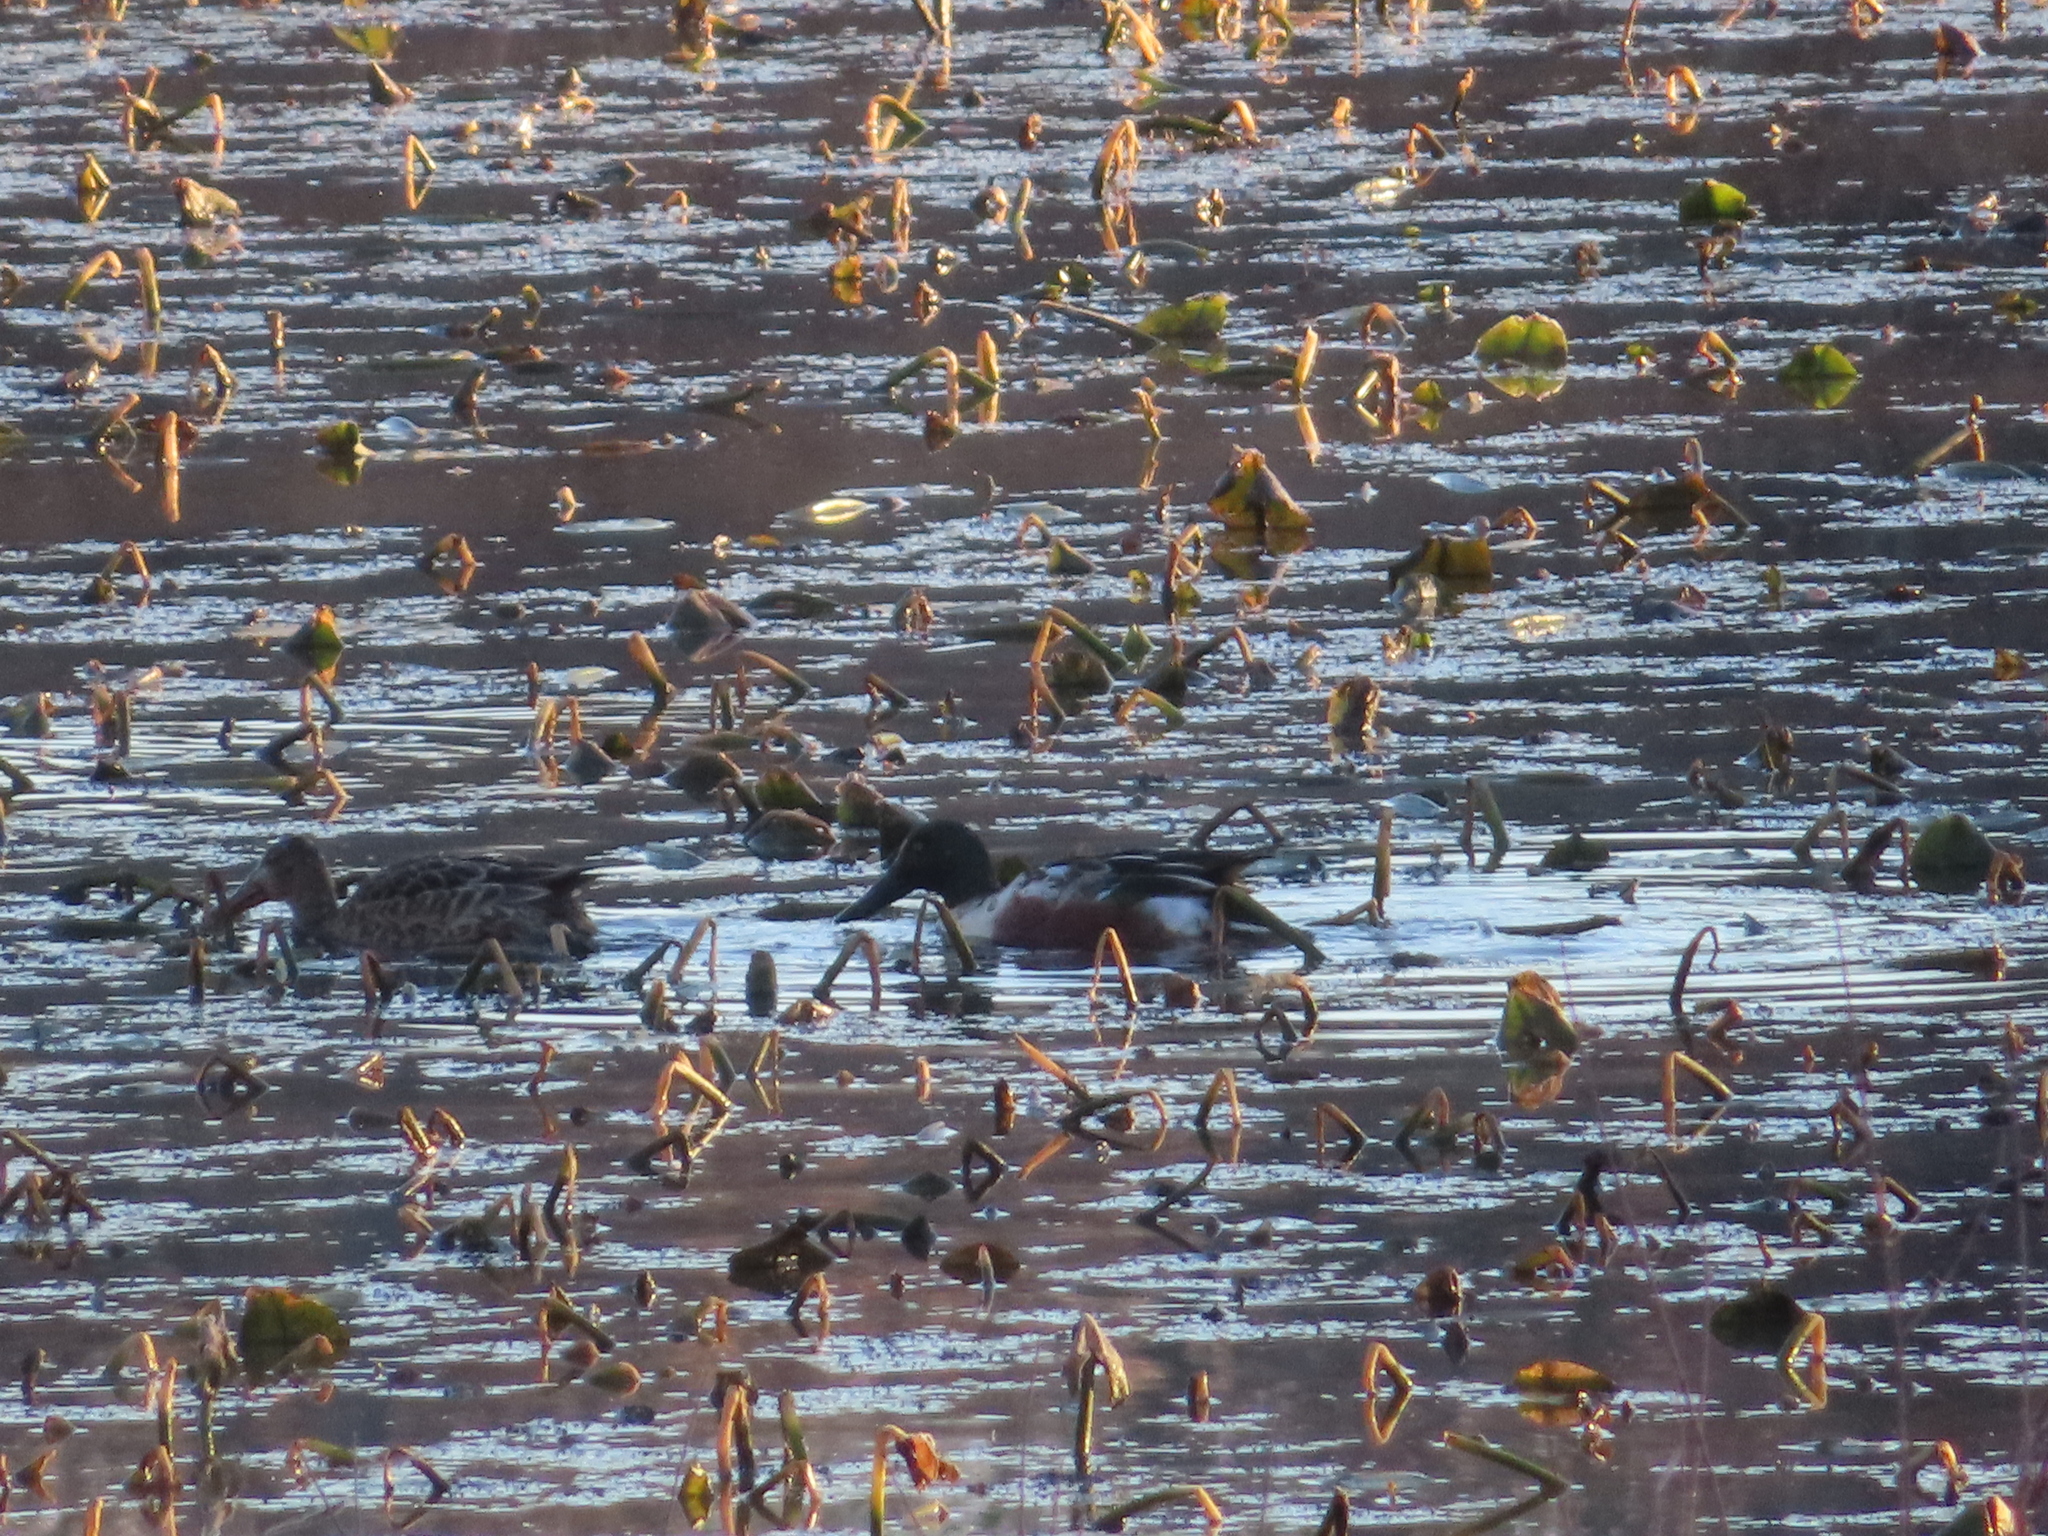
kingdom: Animalia
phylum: Chordata
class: Aves
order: Anseriformes
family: Anatidae
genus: Spatula
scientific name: Spatula clypeata
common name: Northern shoveler
